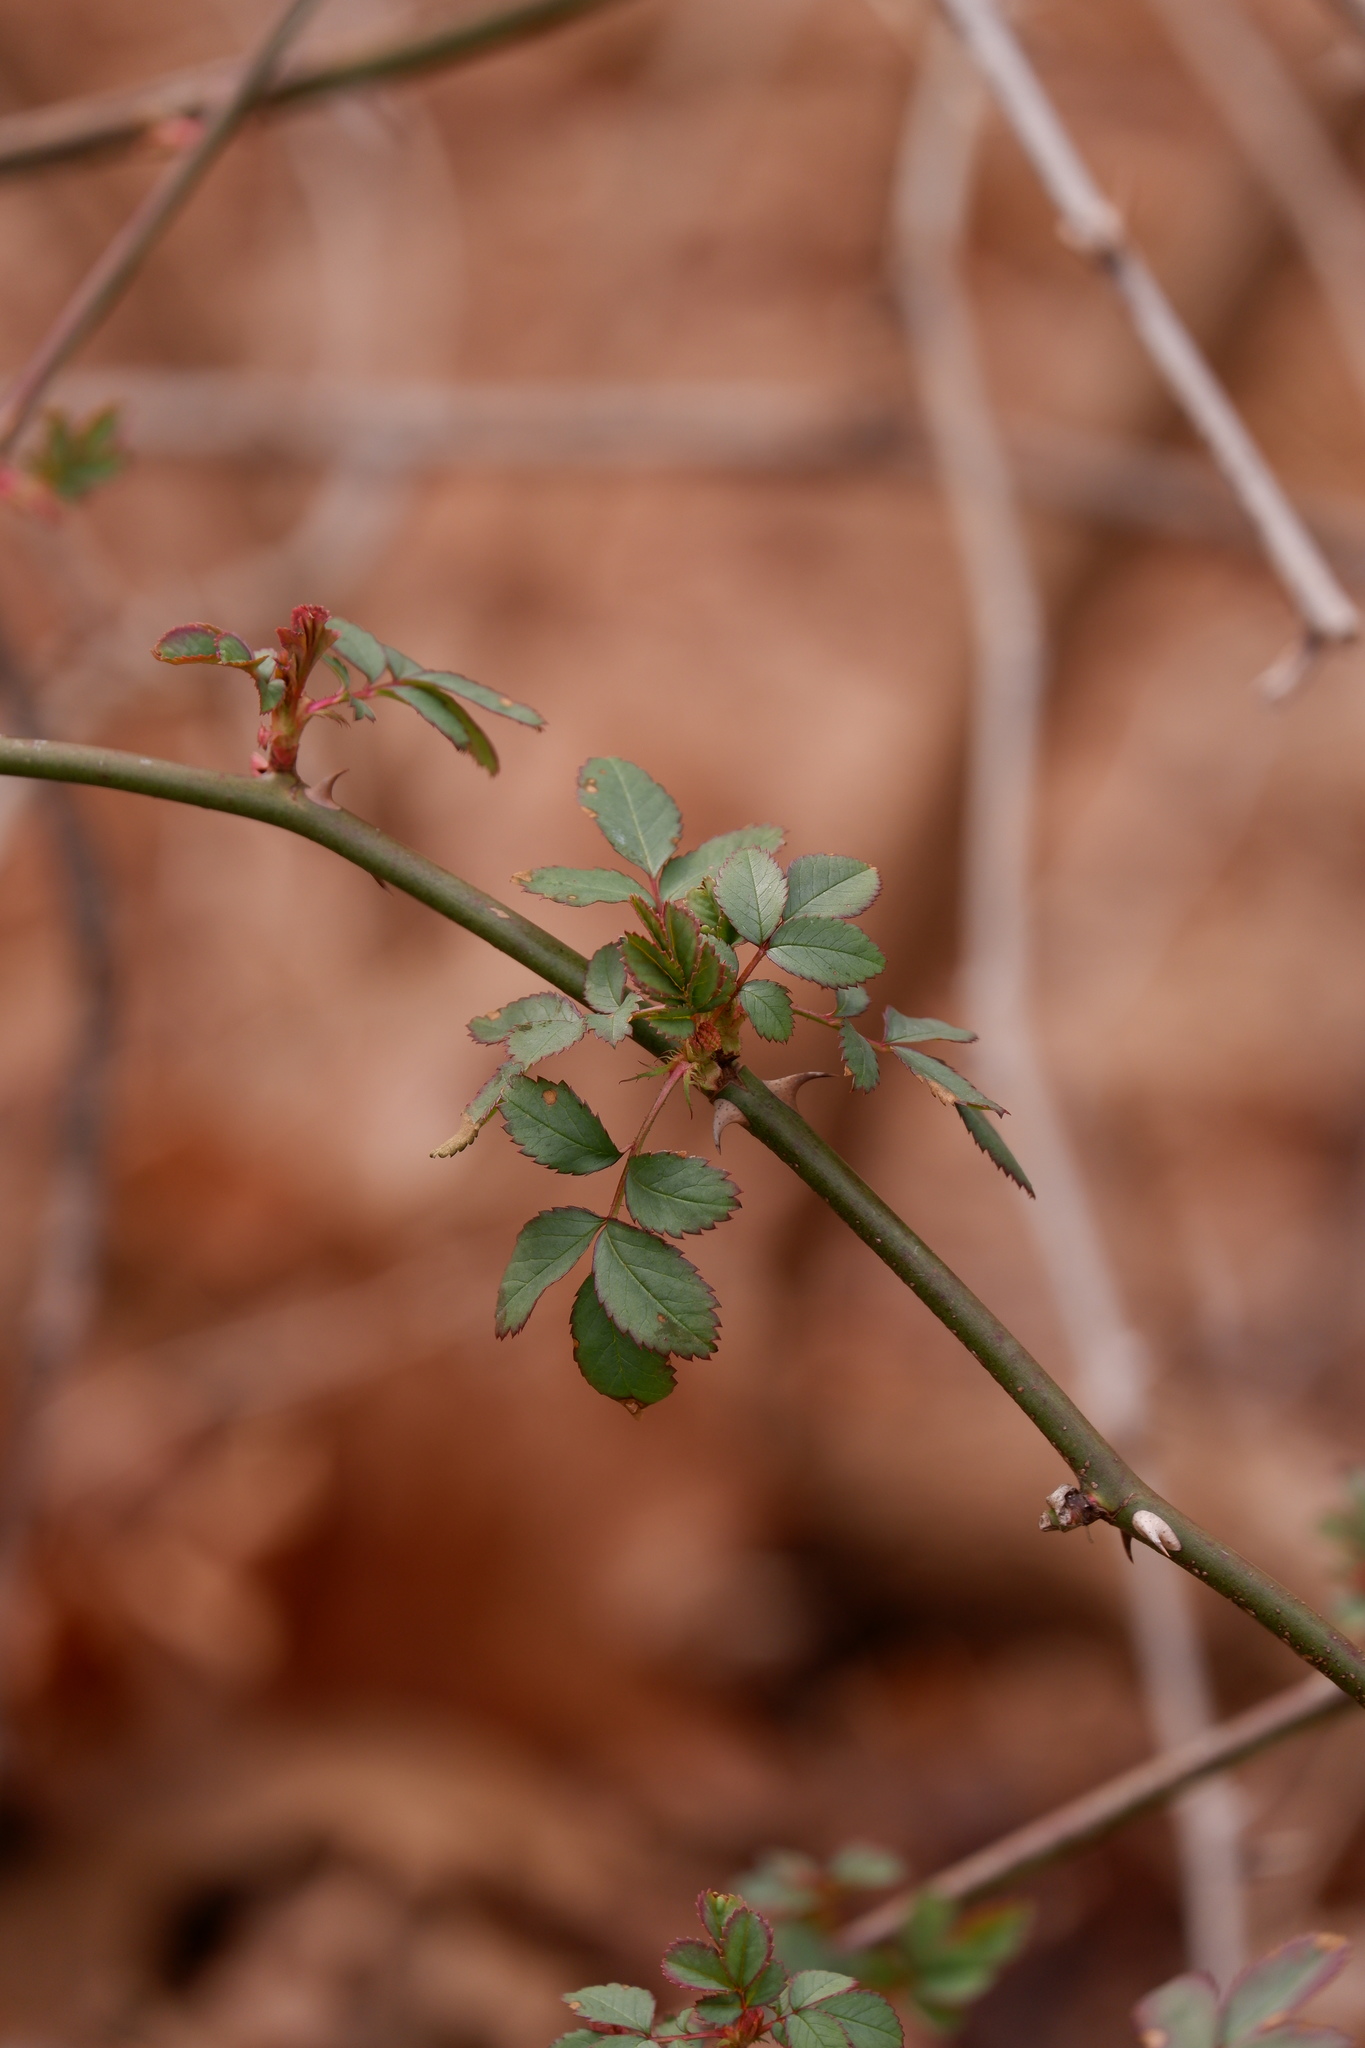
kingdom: Plantae
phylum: Tracheophyta
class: Magnoliopsida
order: Rosales
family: Rosaceae
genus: Rosa
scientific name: Rosa multiflora
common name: Multiflora rose
